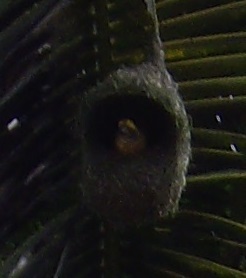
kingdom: Animalia
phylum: Chordata
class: Aves
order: Passeriformes
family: Ploceidae
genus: Ploceus
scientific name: Ploceus philippinus
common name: Baya weaver
